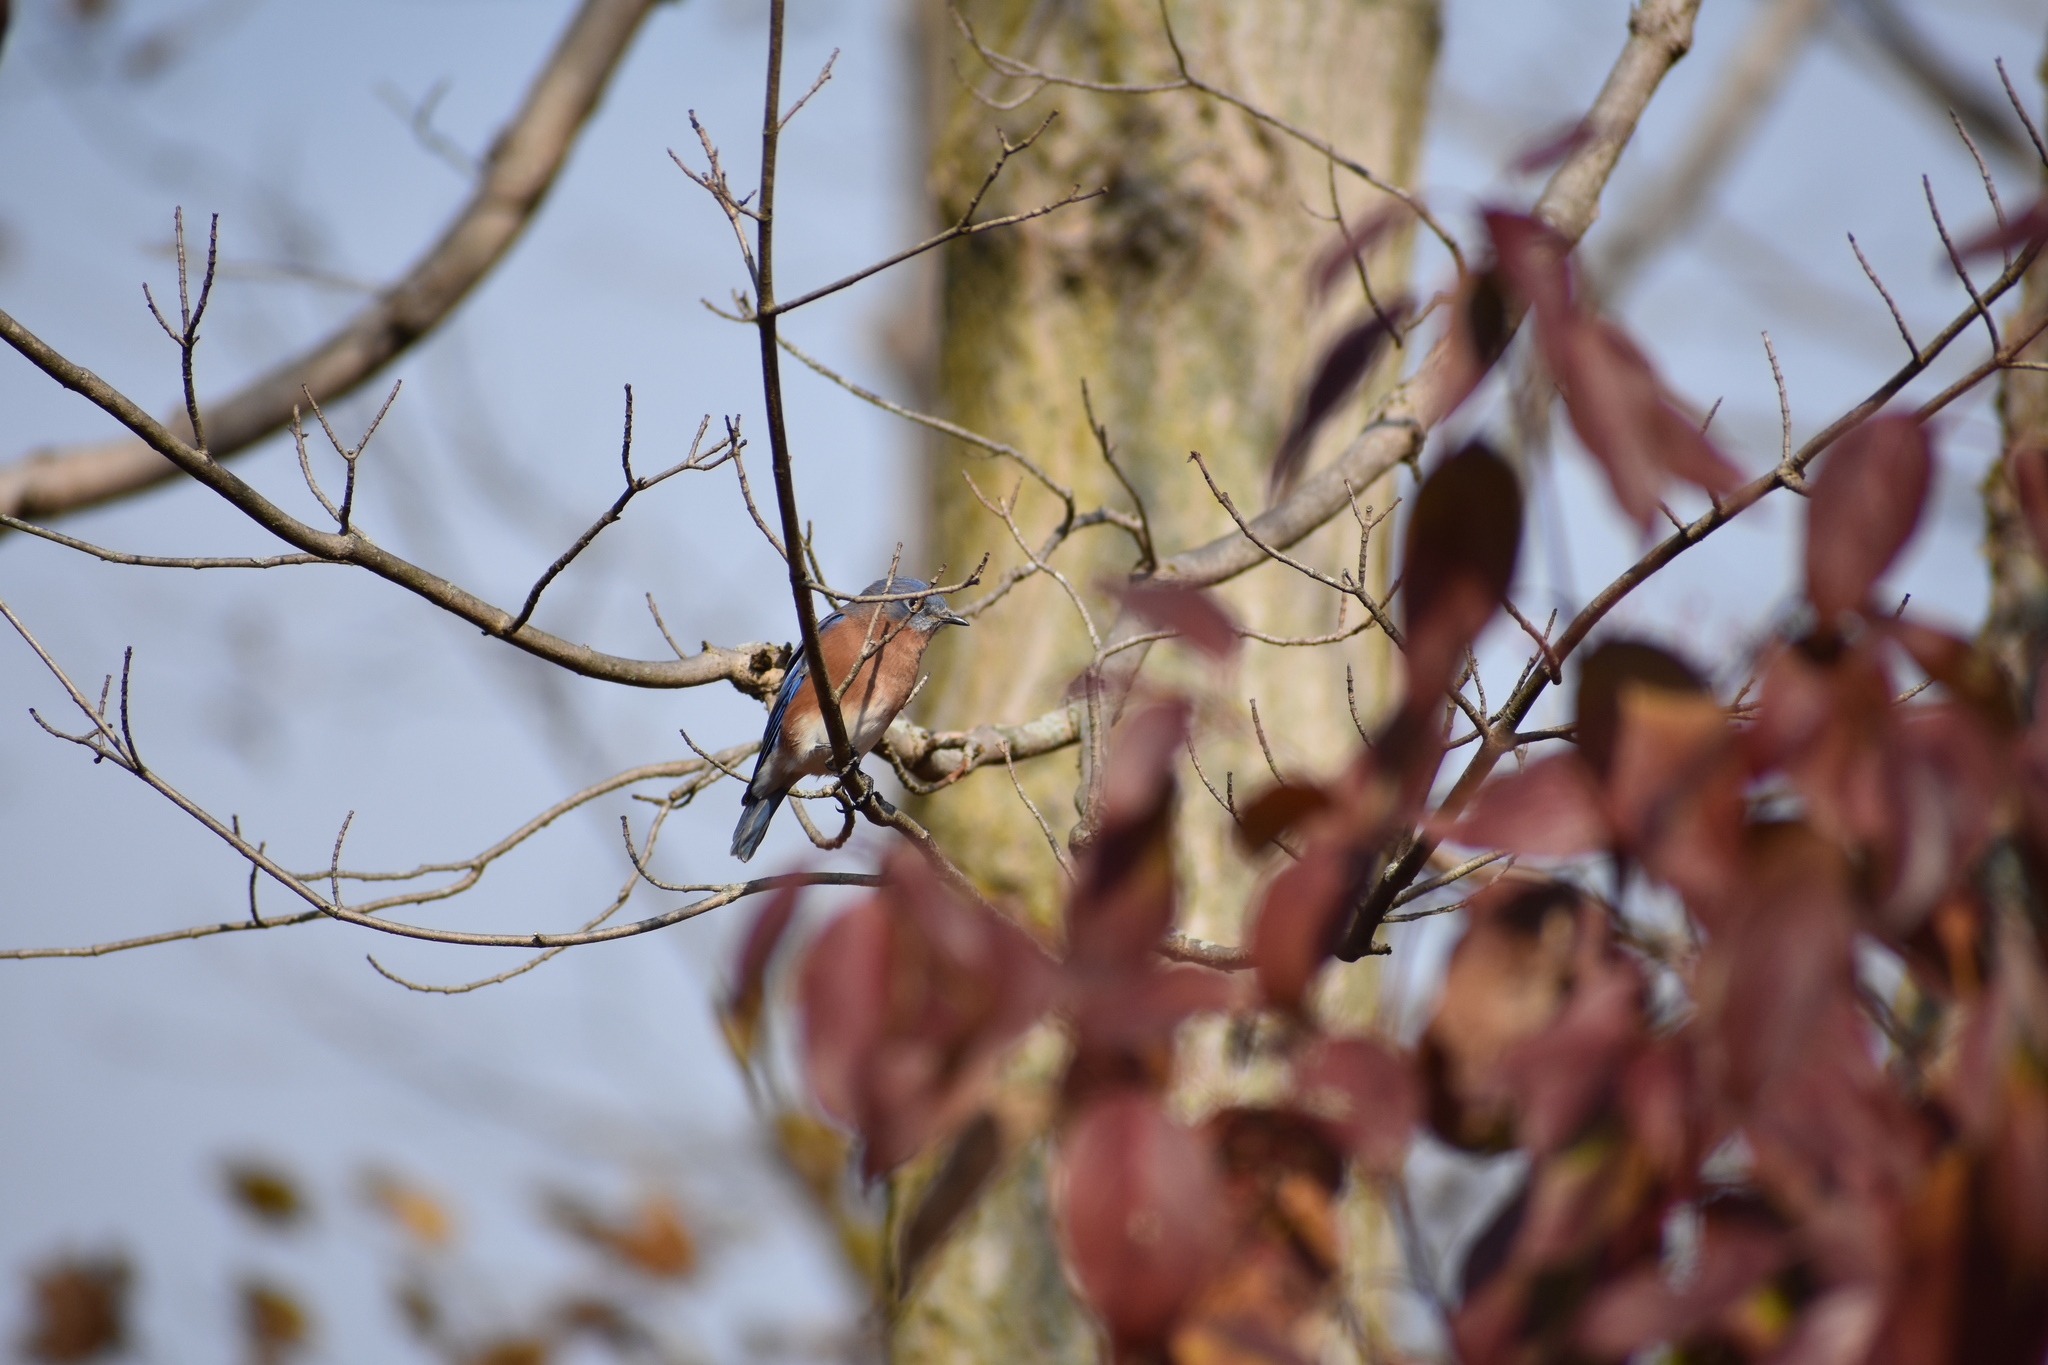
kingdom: Animalia
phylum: Chordata
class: Aves
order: Passeriformes
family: Turdidae
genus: Sialia
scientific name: Sialia sialis
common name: Eastern bluebird
